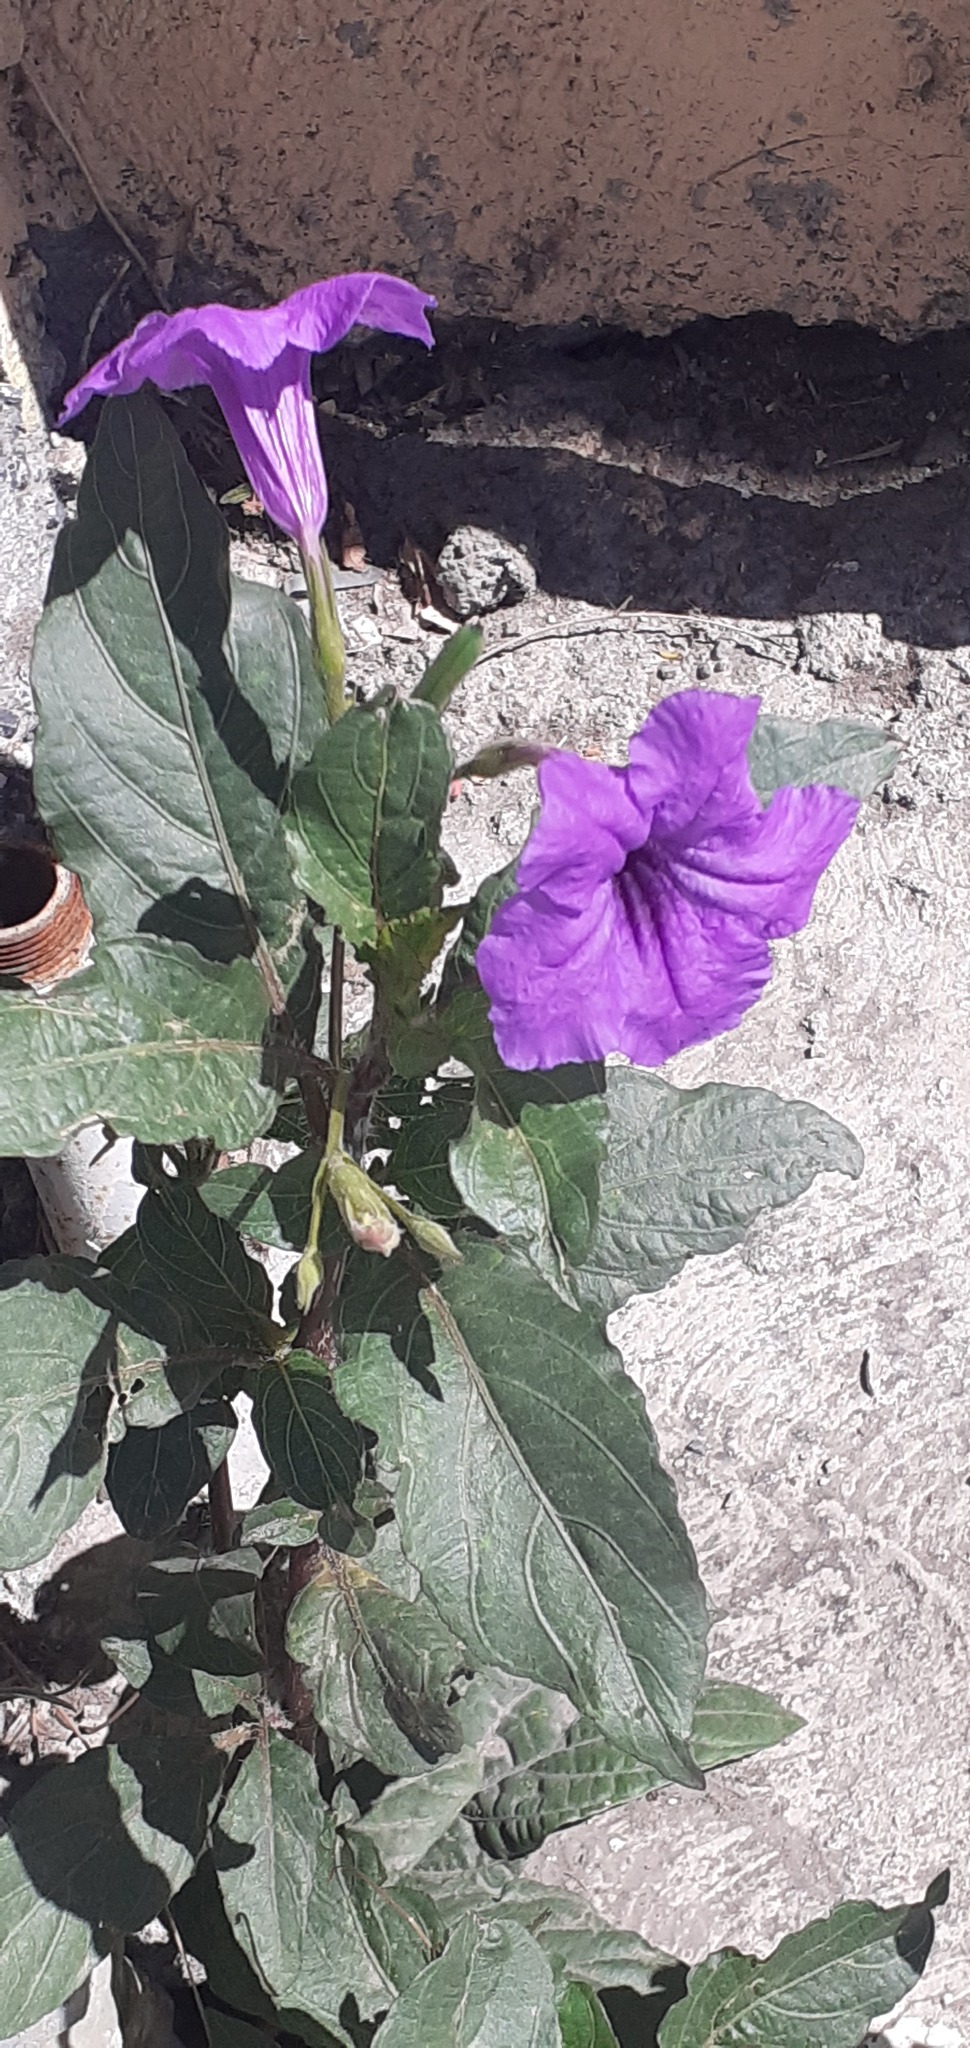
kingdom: Plantae
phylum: Tracheophyta
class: Magnoliopsida
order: Lamiales
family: Acanthaceae
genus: Ruellia
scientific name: Ruellia simplex
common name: Softseed wild petunia
